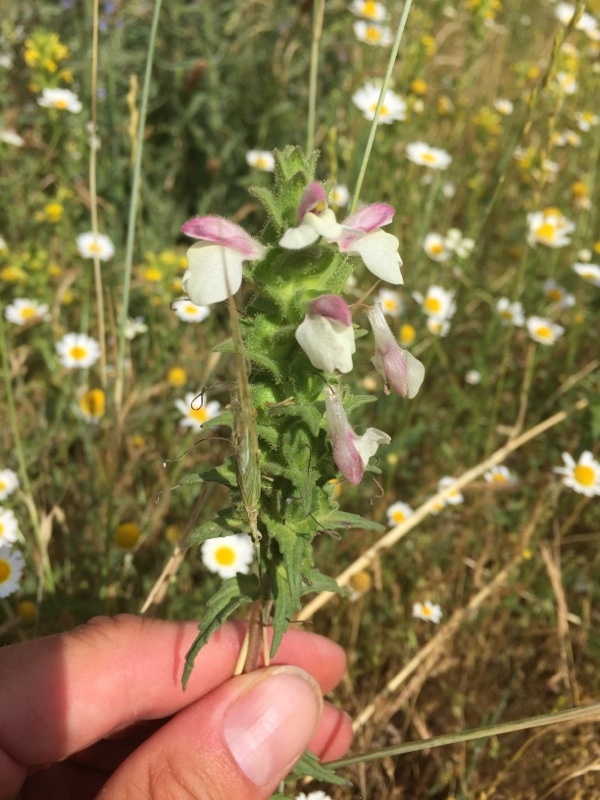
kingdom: Plantae
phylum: Tracheophyta
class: Magnoliopsida
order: Lamiales
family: Orobanchaceae
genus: Bellardia
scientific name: Bellardia trixago
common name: Mediterranean lineseed
